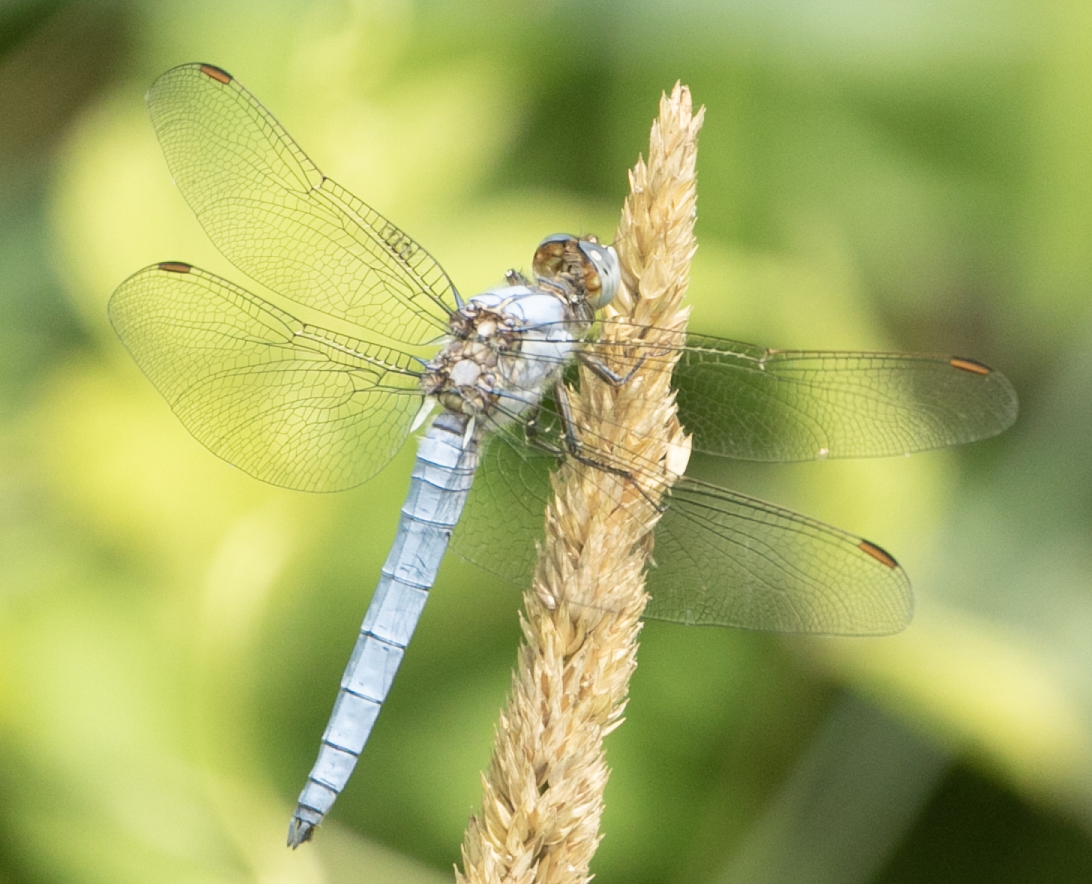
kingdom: Animalia
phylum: Arthropoda
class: Insecta
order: Odonata
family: Libellulidae
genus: Orthetrum
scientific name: Orthetrum brunneum
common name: Southern skimmer
